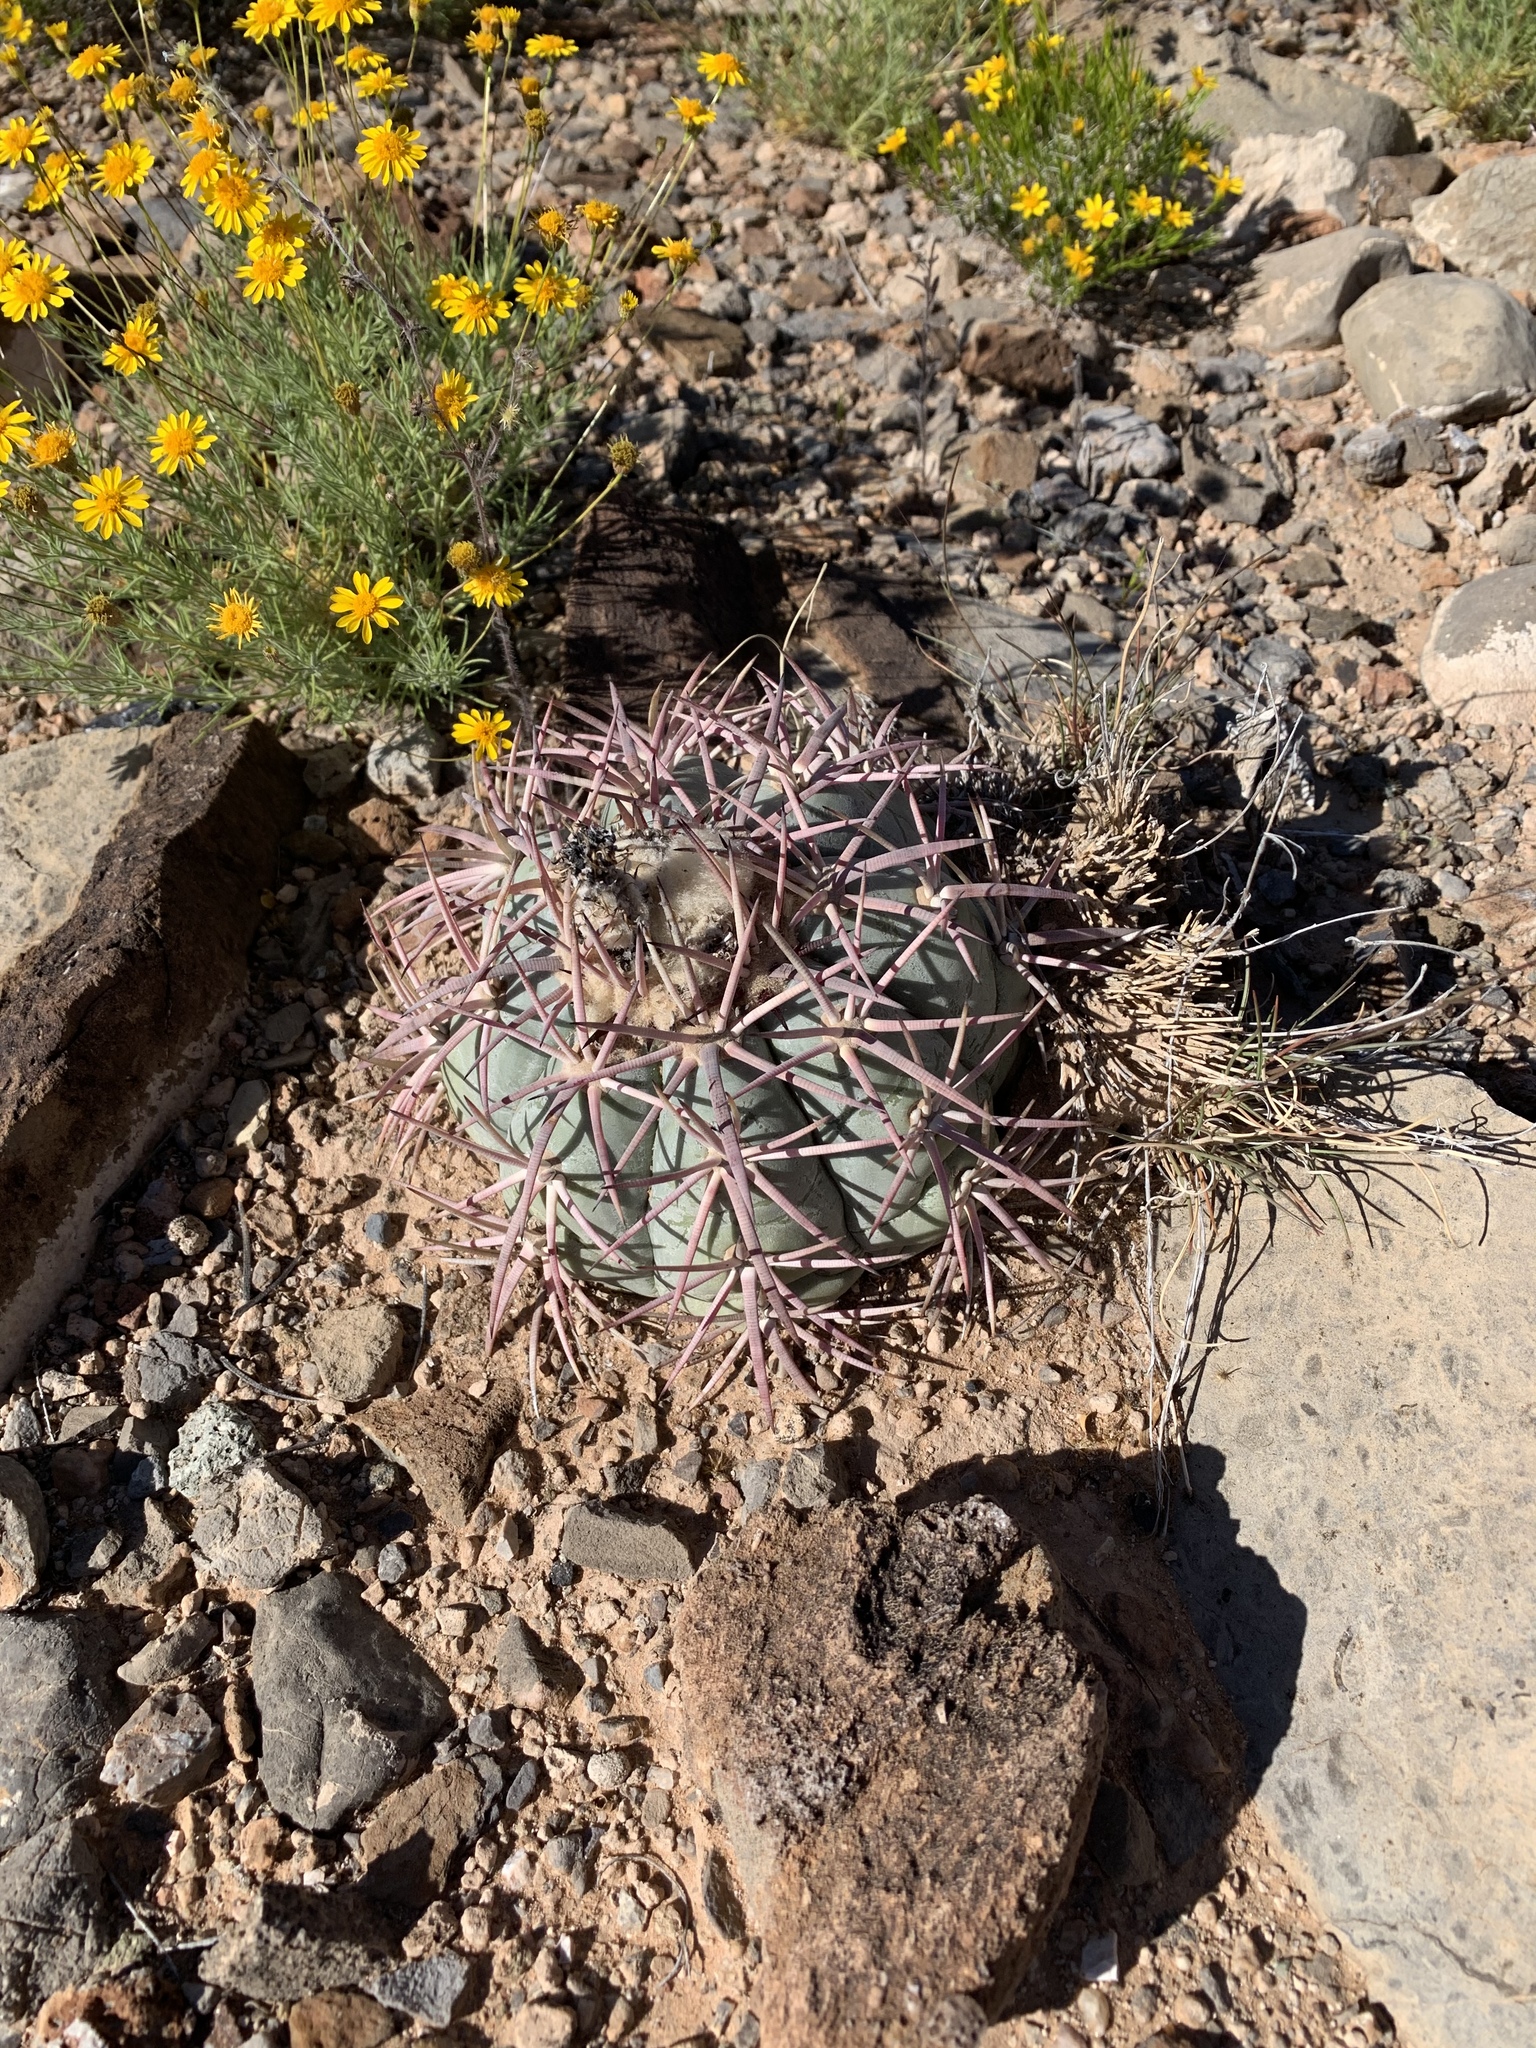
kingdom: Plantae
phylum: Tracheophyta
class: Magnoliopsida
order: Caryophyllales
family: Cactaceae
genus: Echinocactus
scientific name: Echinocactus horizonthalonius
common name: Devilshead
